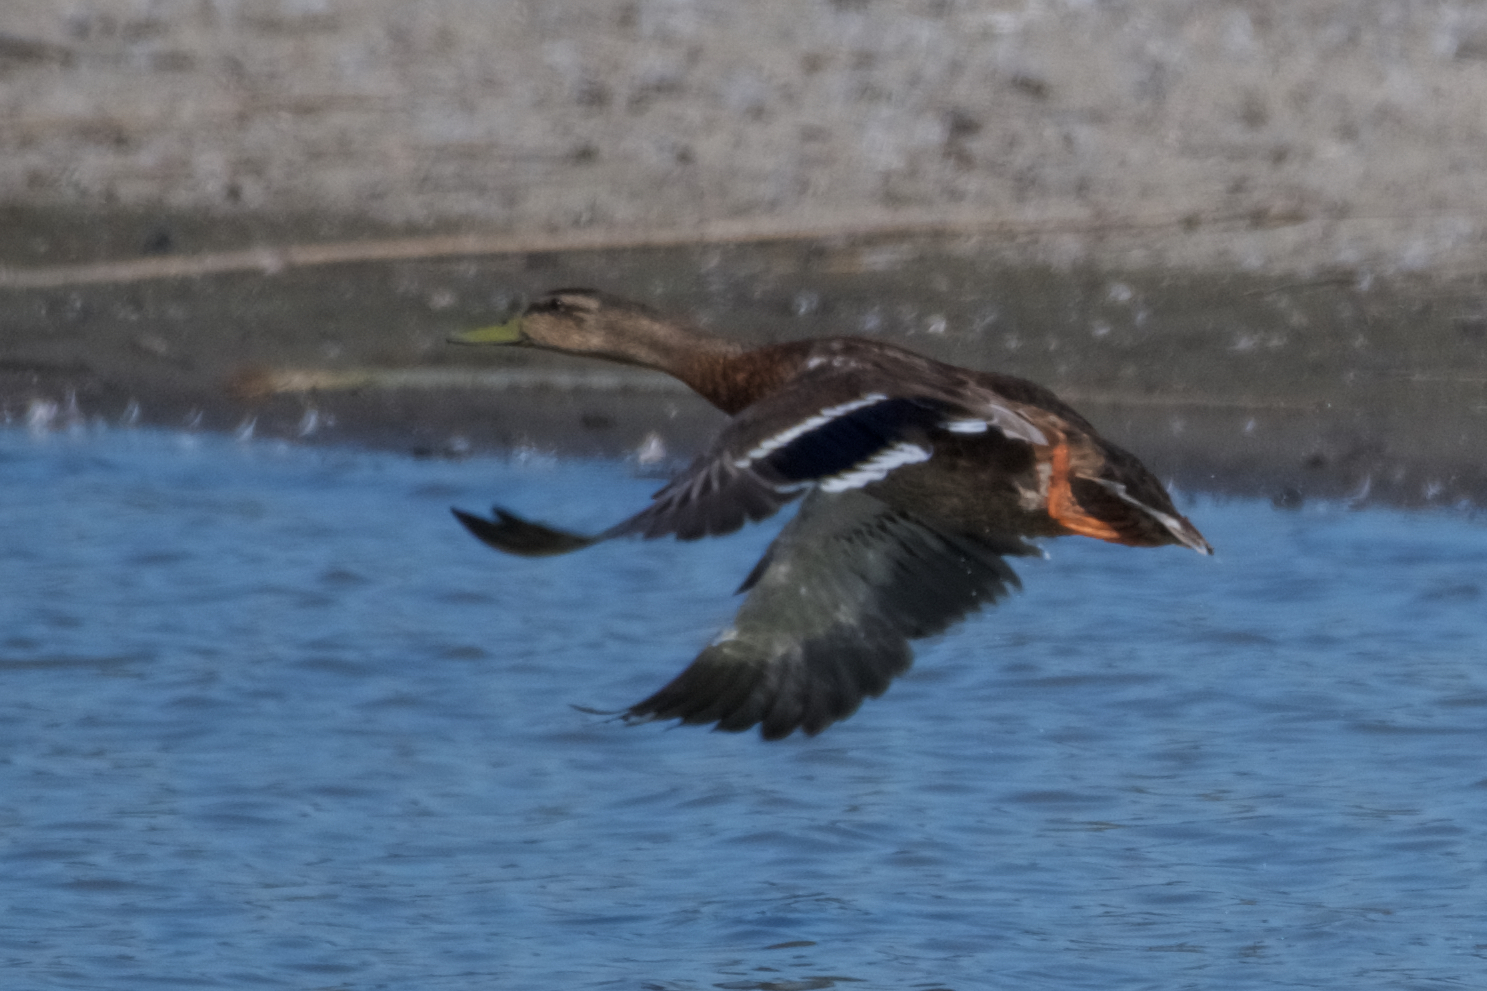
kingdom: Animalia
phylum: Chordata
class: Aves
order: Anseriformes
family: Anatidae
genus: Anas
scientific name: Anas platyrhynchos
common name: Mallard
